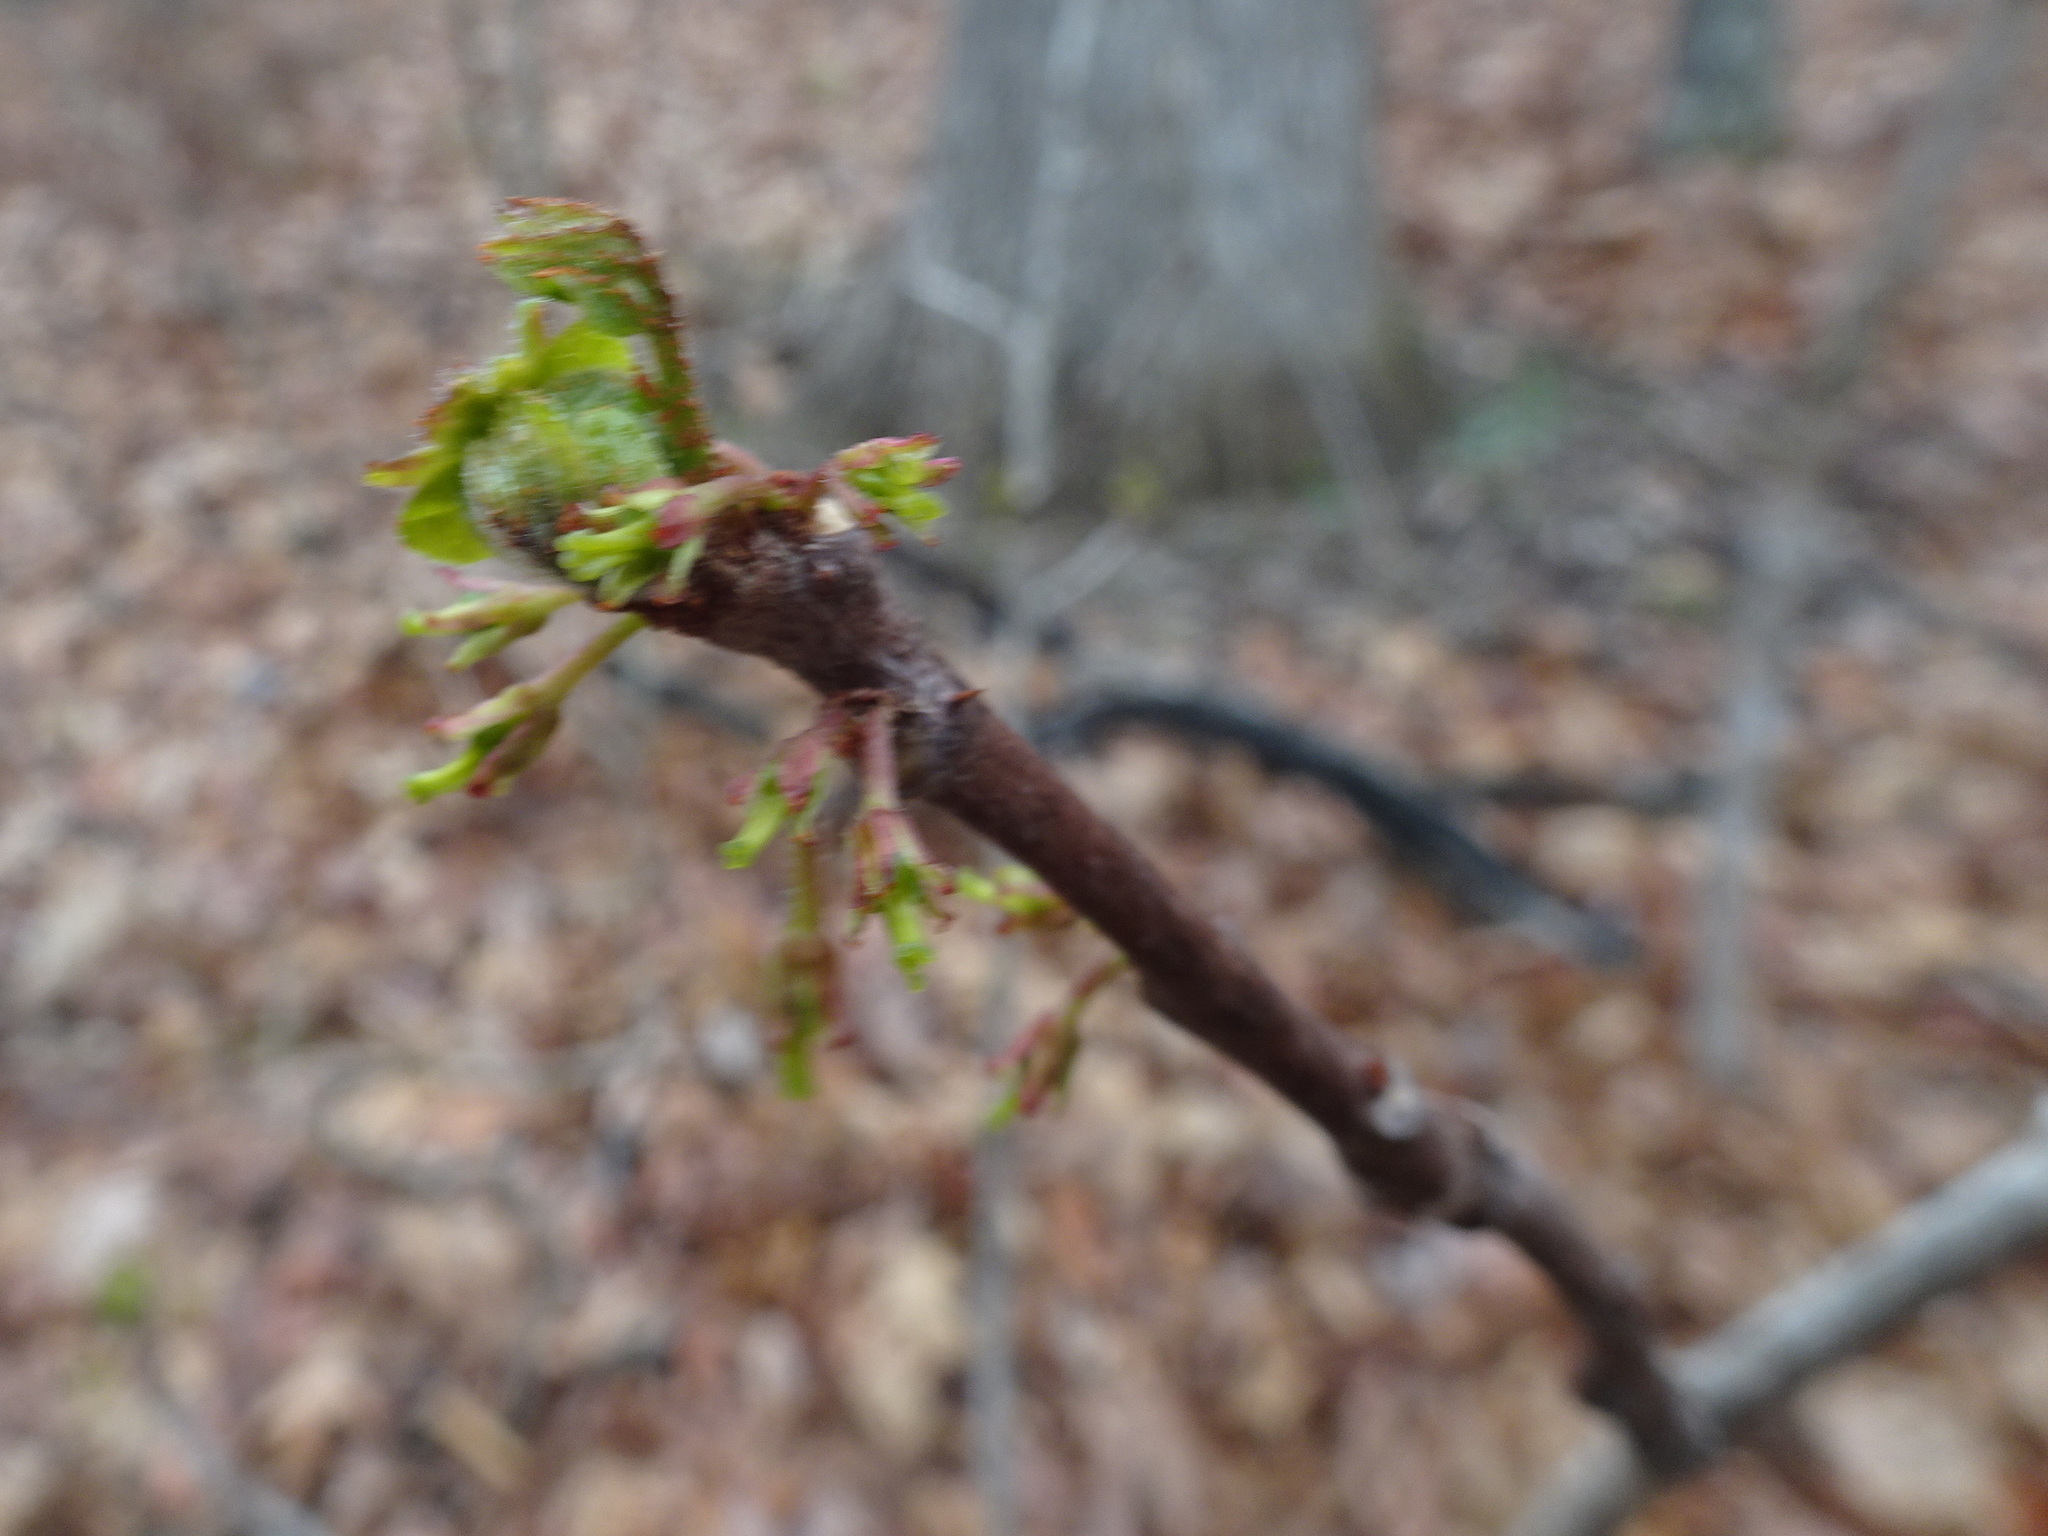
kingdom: Plantae
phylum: Tracheophyta
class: Magnoliopsida
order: Sapindales
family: Rutaceae
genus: Zanthoxylum
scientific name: Zanthoxylum americanum
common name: Northern prickly-ash
